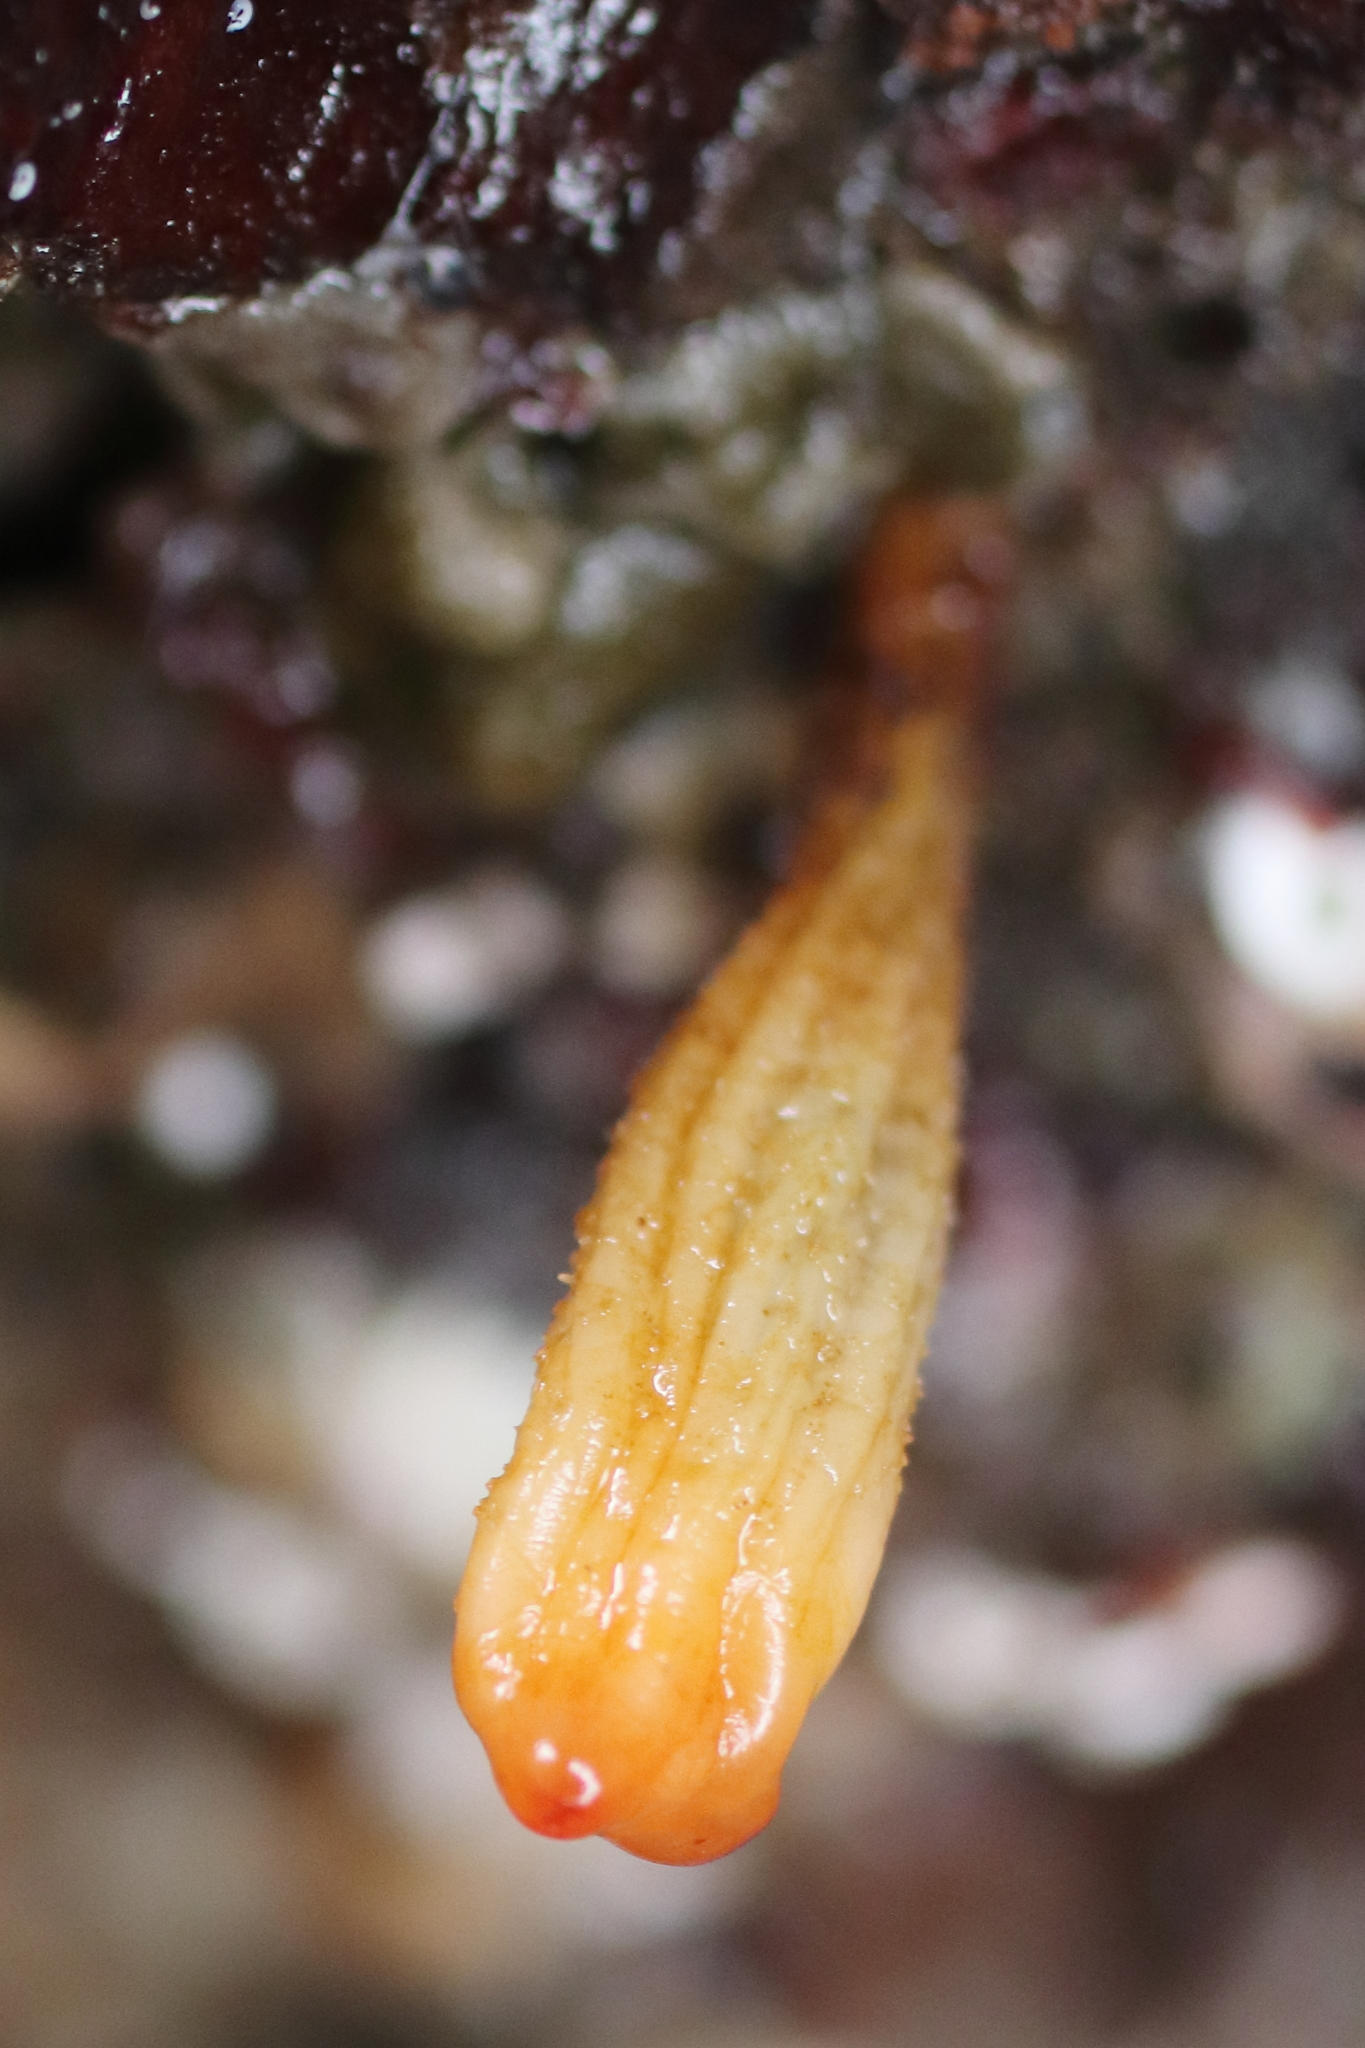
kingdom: Animalia
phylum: Chordata
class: Ascidiacea
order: Stolidobranchia
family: Styelidae
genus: Styela
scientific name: Styela montereyensis
